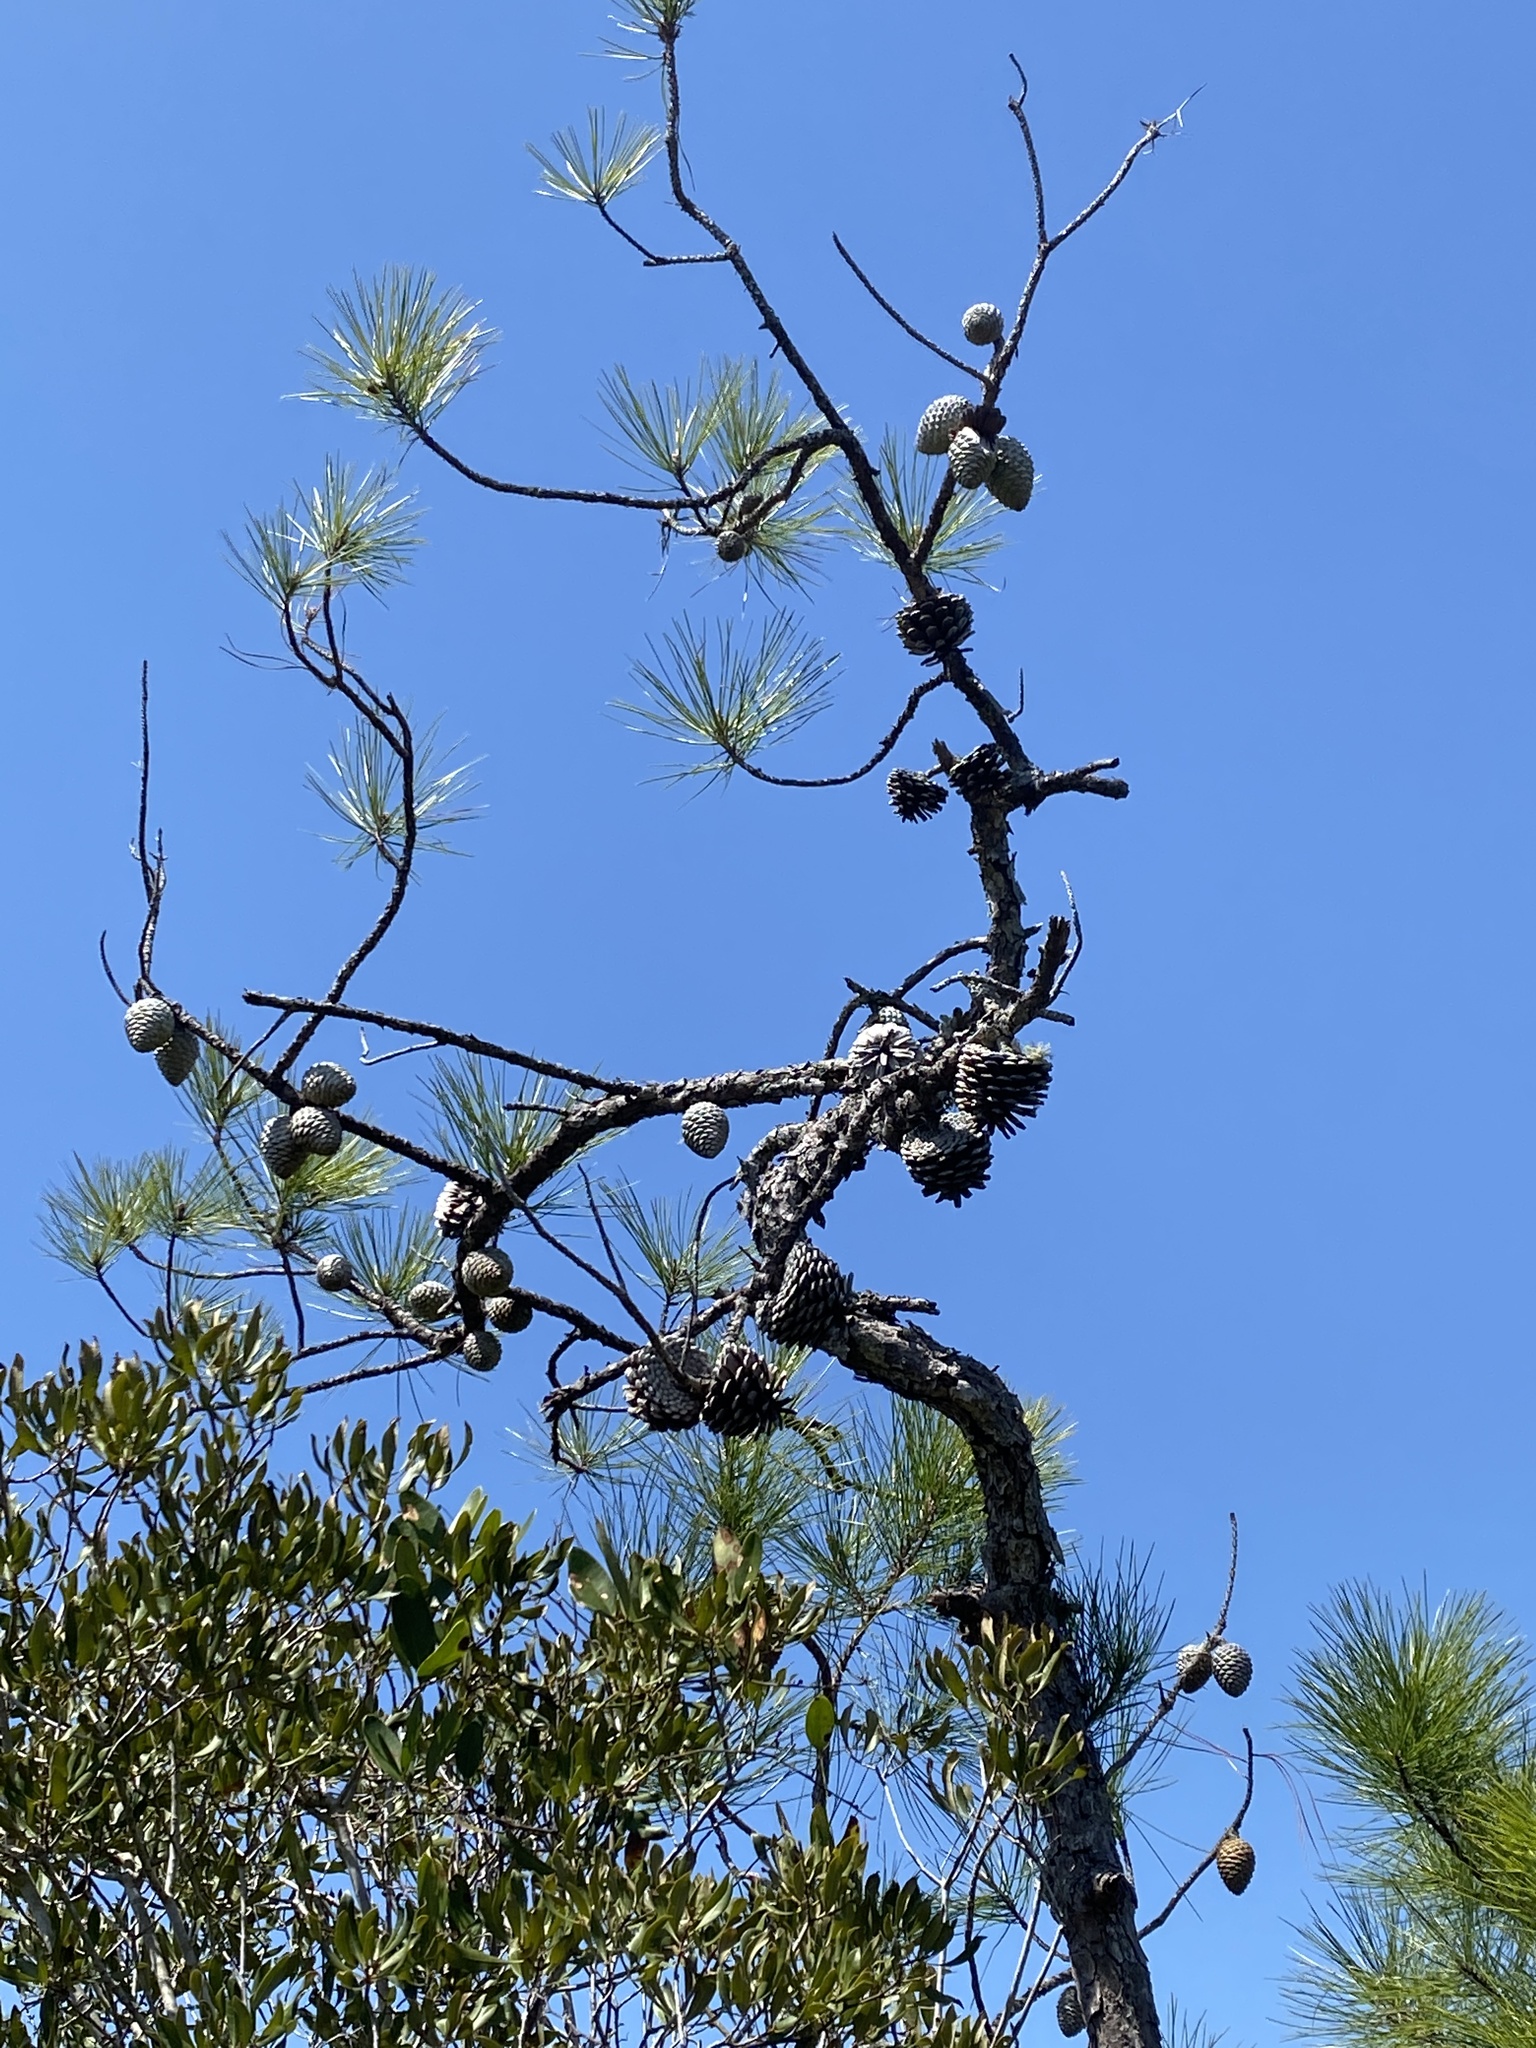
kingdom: Plantae
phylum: Tracheophyta
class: Pinopsida
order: Pinales
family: Pinaceae
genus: Pinus
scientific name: Pinus serotina
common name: Marsh pine
